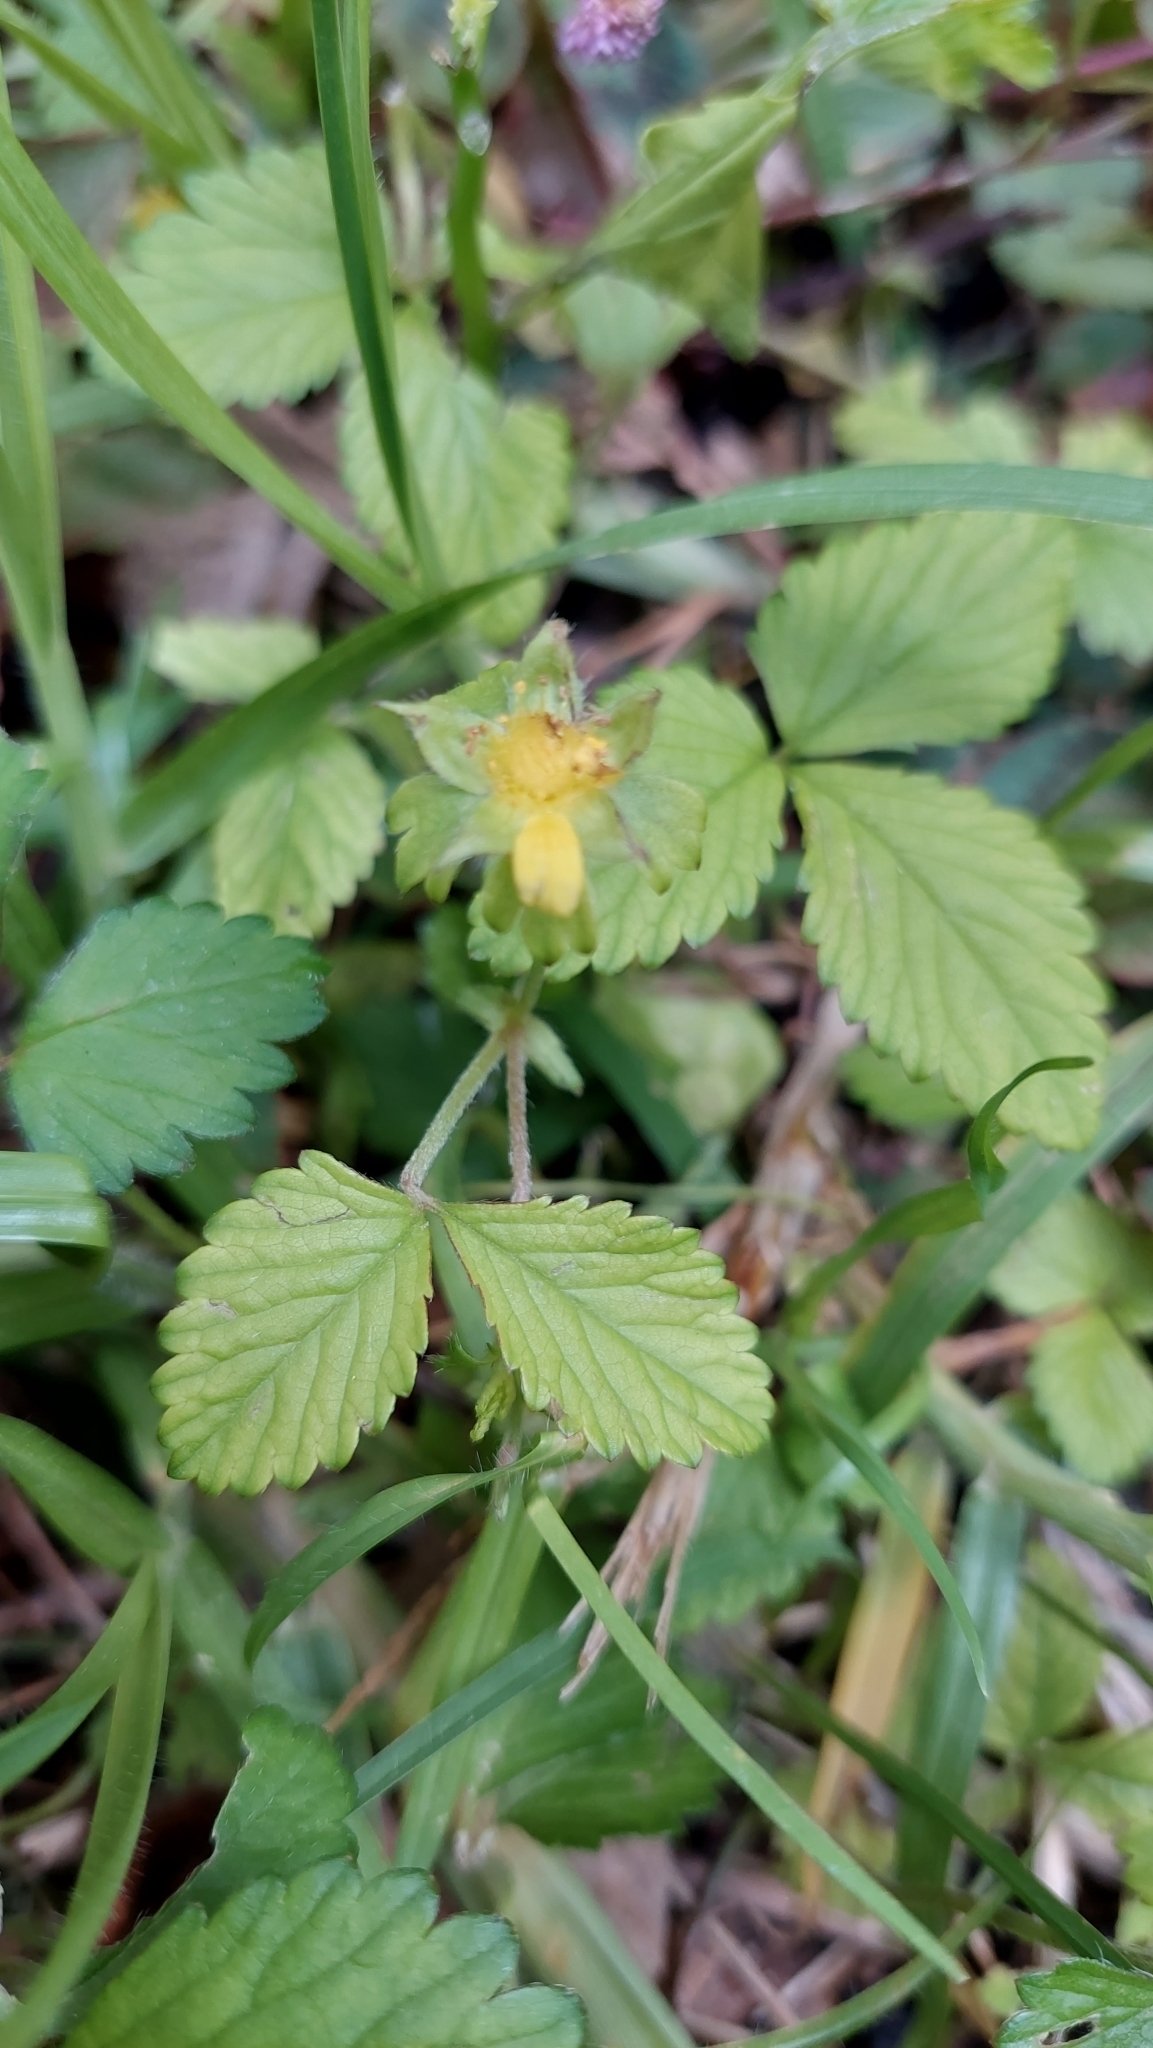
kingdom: Plantae
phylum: Tracheophyta
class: Magnoliopsida
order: Rosales
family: Rosaceae
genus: Potentilla
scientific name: Potentilla indica
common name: Yellow-flowered strawberry
